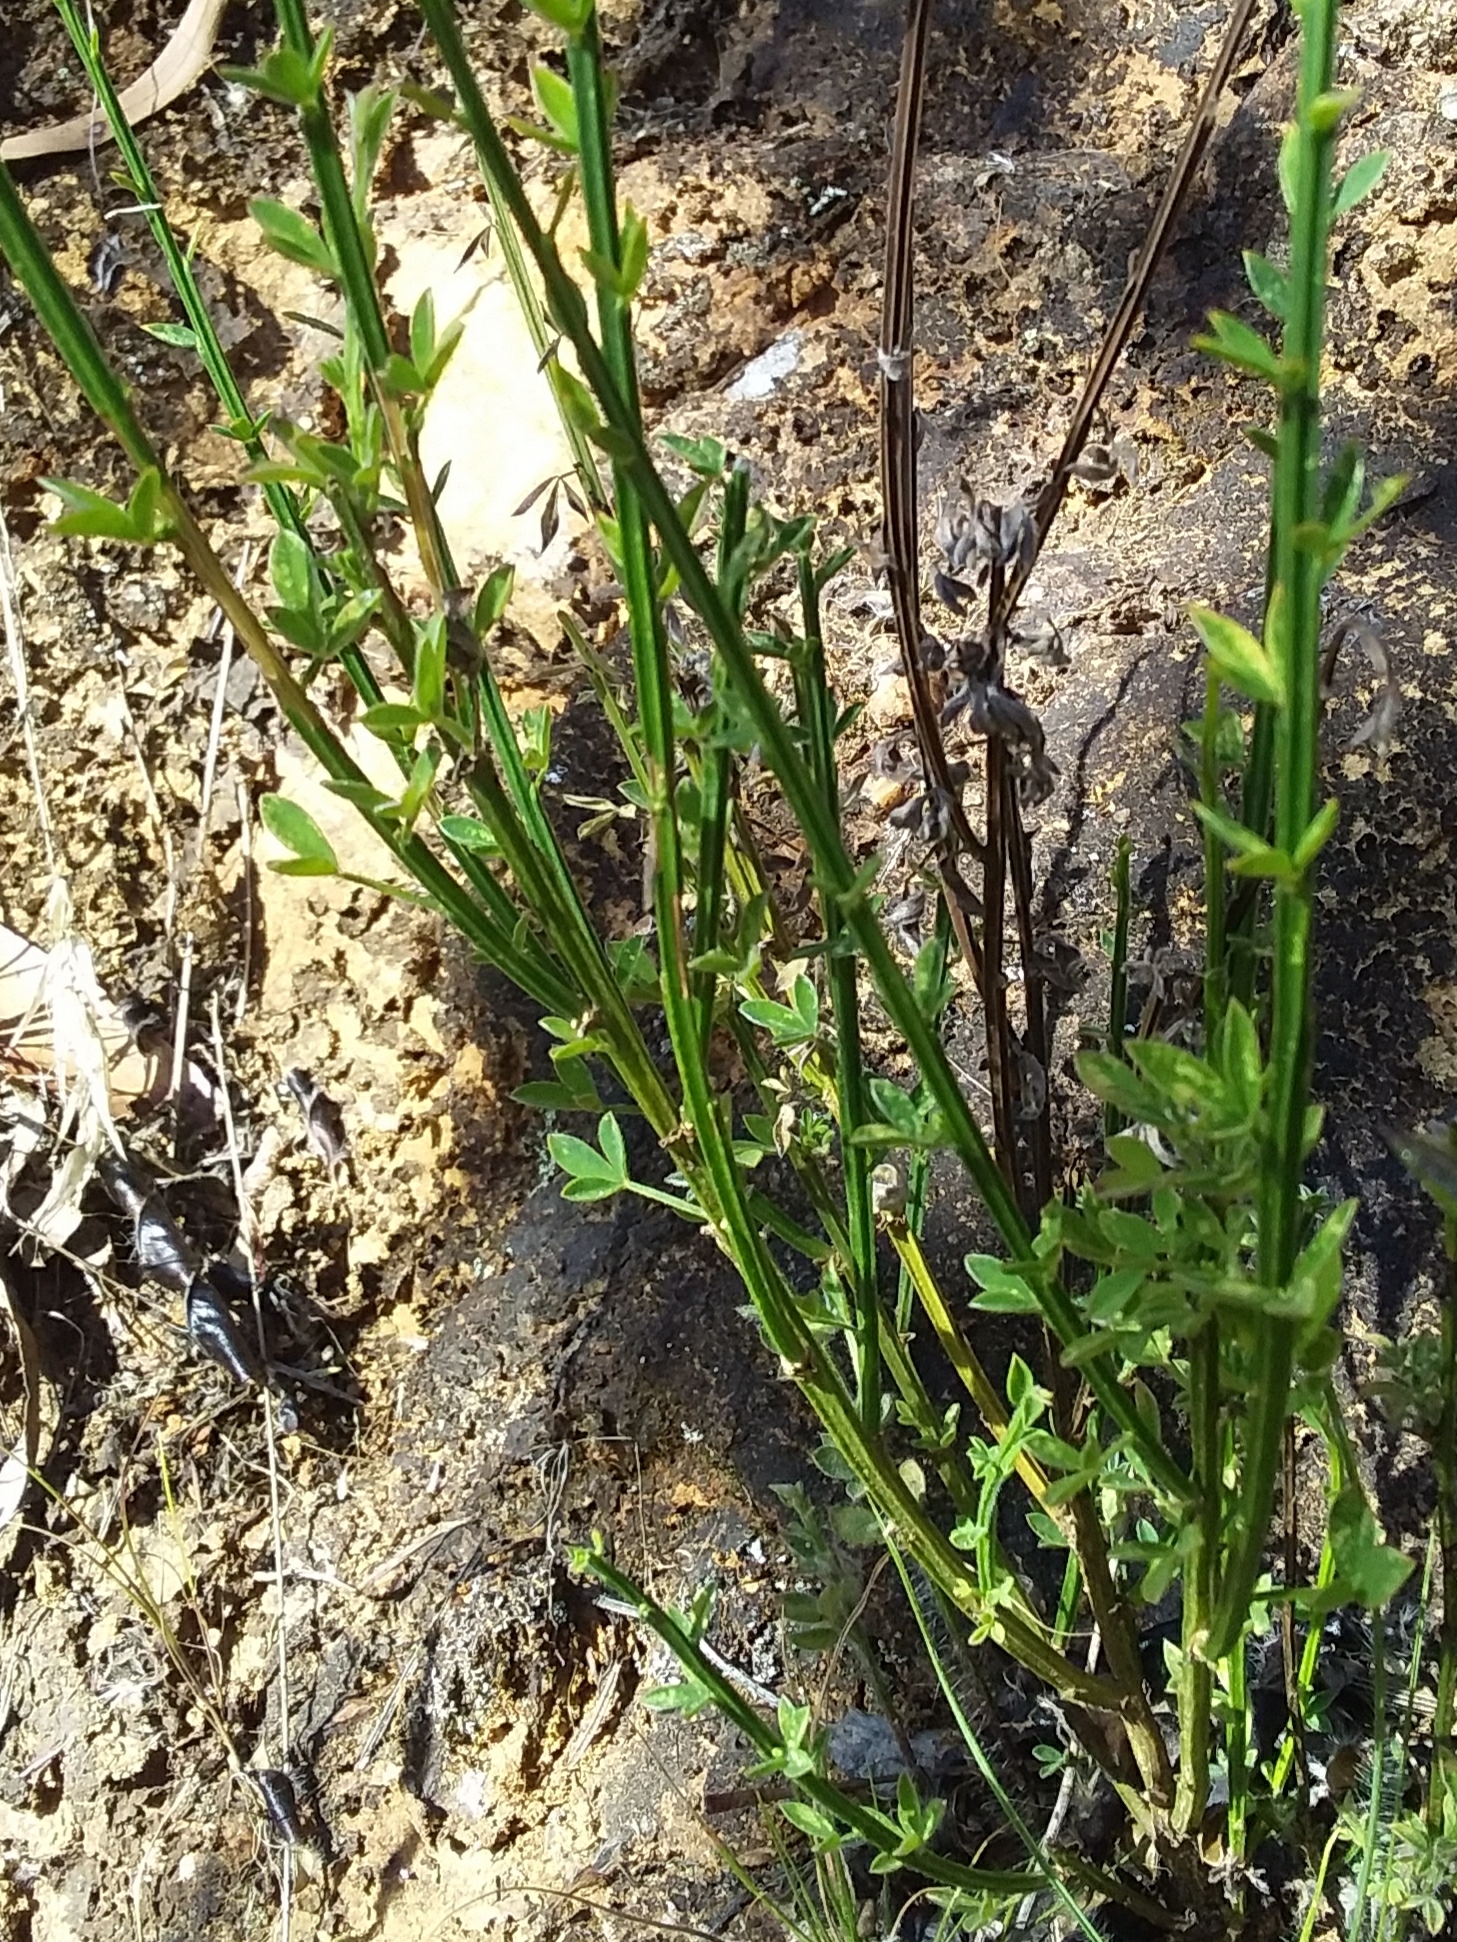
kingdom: Plantae
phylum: Tracheophyta
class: Magnoliopsida
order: Fabales
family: Fabaceae
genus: Cytisus
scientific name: Cytisus scoparius
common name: Scotch broom
